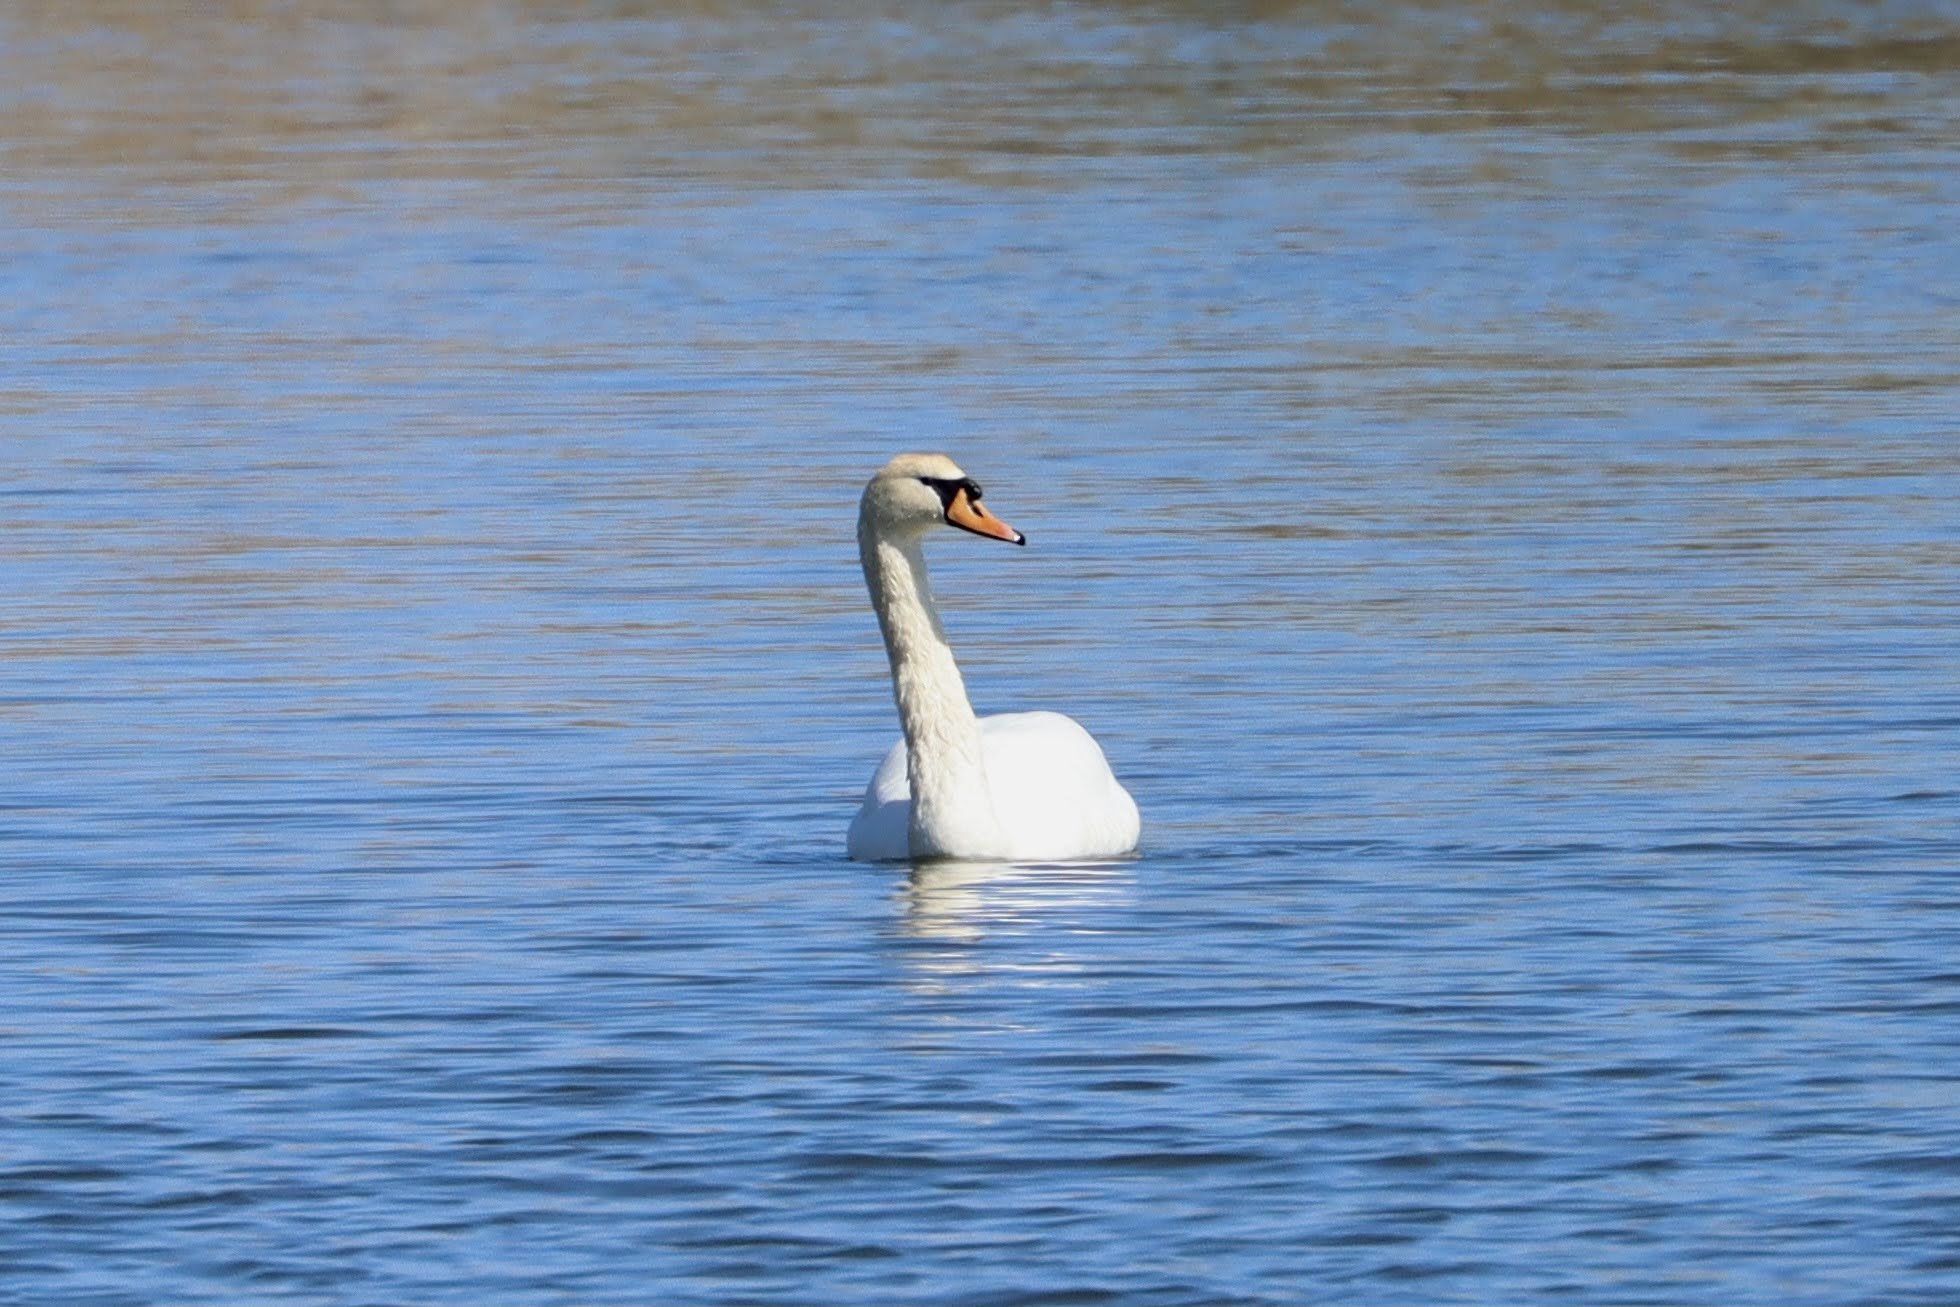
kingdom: Animalia
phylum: Chordata
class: Aves
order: Anseriformes
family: Anatidae
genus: Cygnus
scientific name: Cygnus olor
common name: Mute swan
